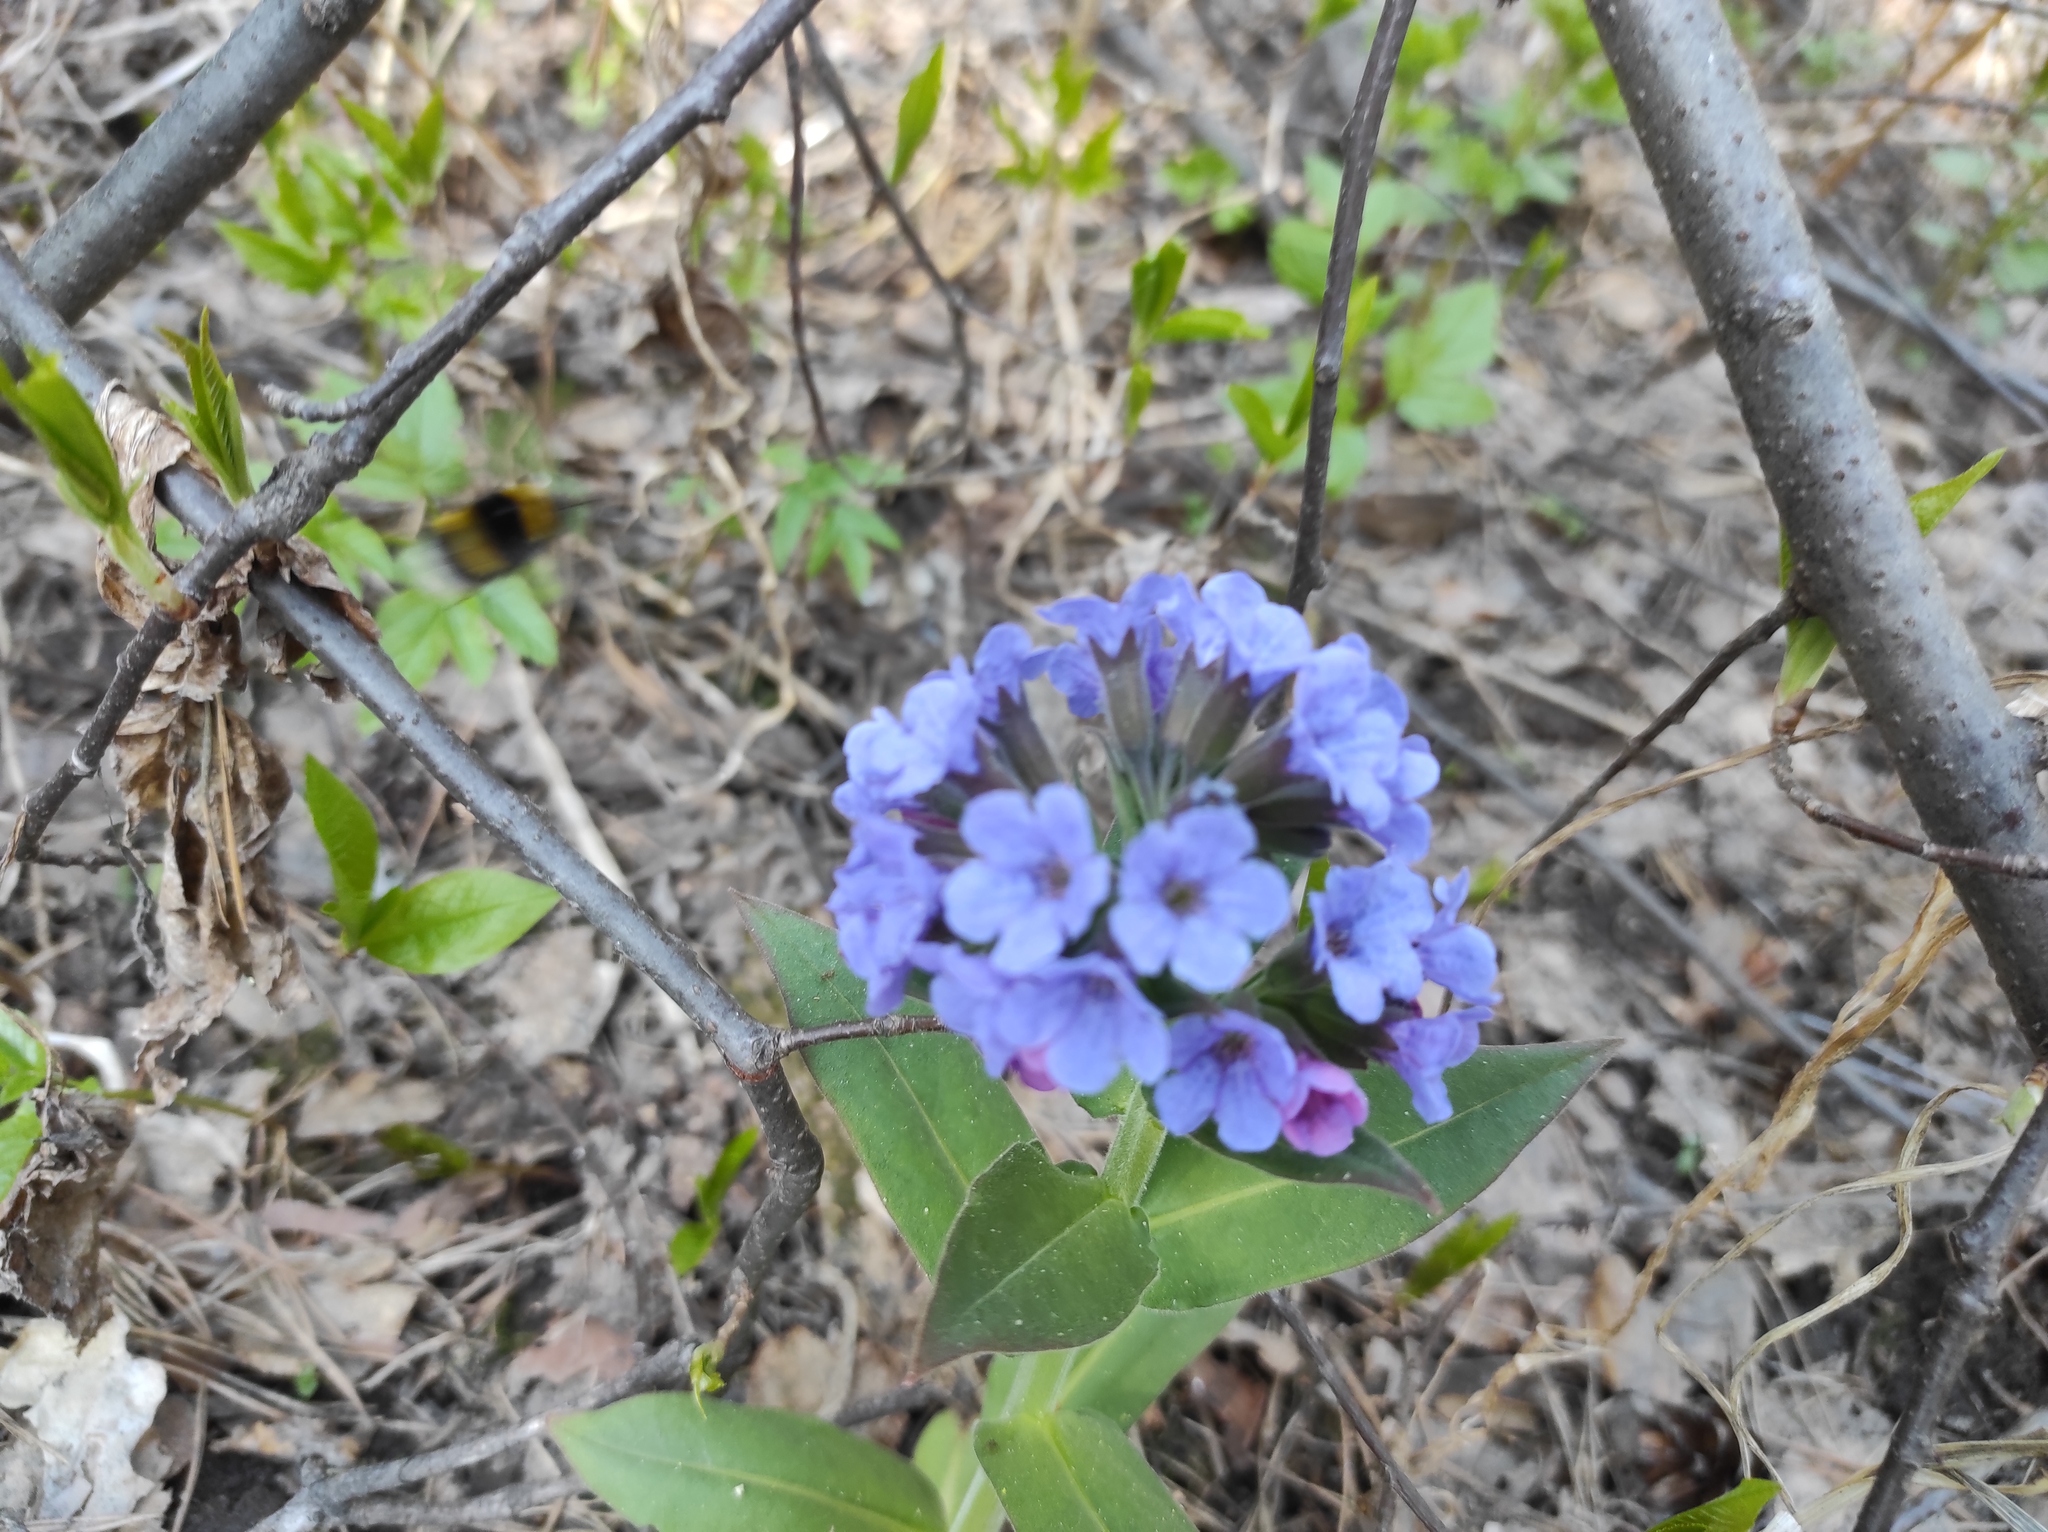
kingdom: Plantae
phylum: Tracheophyta
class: Magnoliopsida
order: Boraginales
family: Boraginaceae
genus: Pulmonaria
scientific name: Pulmonaria mollis
